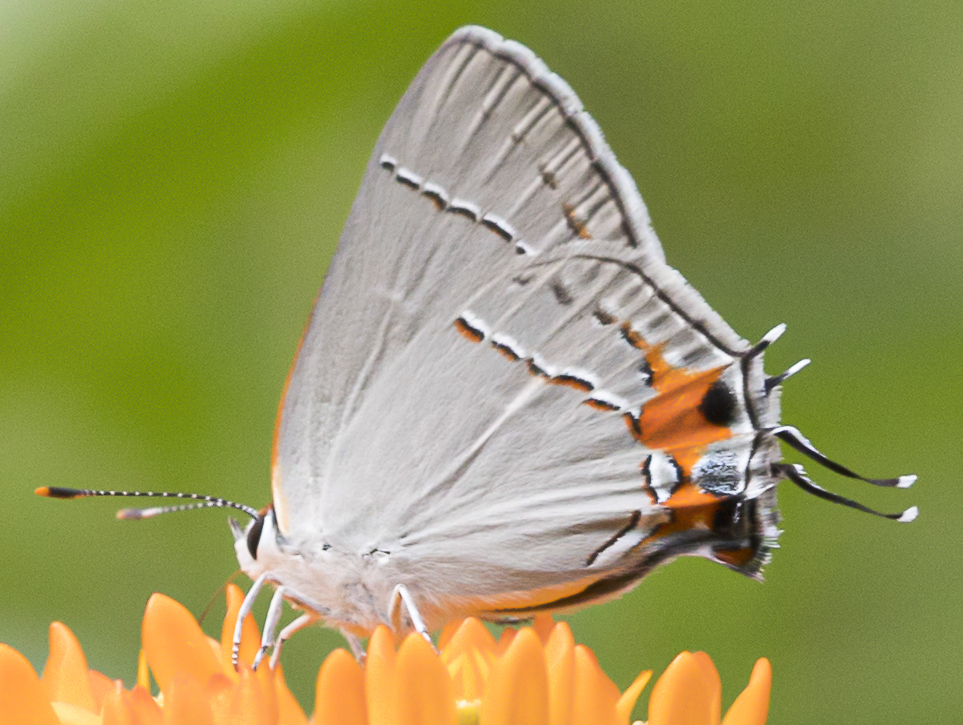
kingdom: Animalia
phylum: Arthropoda
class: Insecta
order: Lepidoptera
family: Lycaenidae
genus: Strymon
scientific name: Strymon melinus
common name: Gray hairstreak
